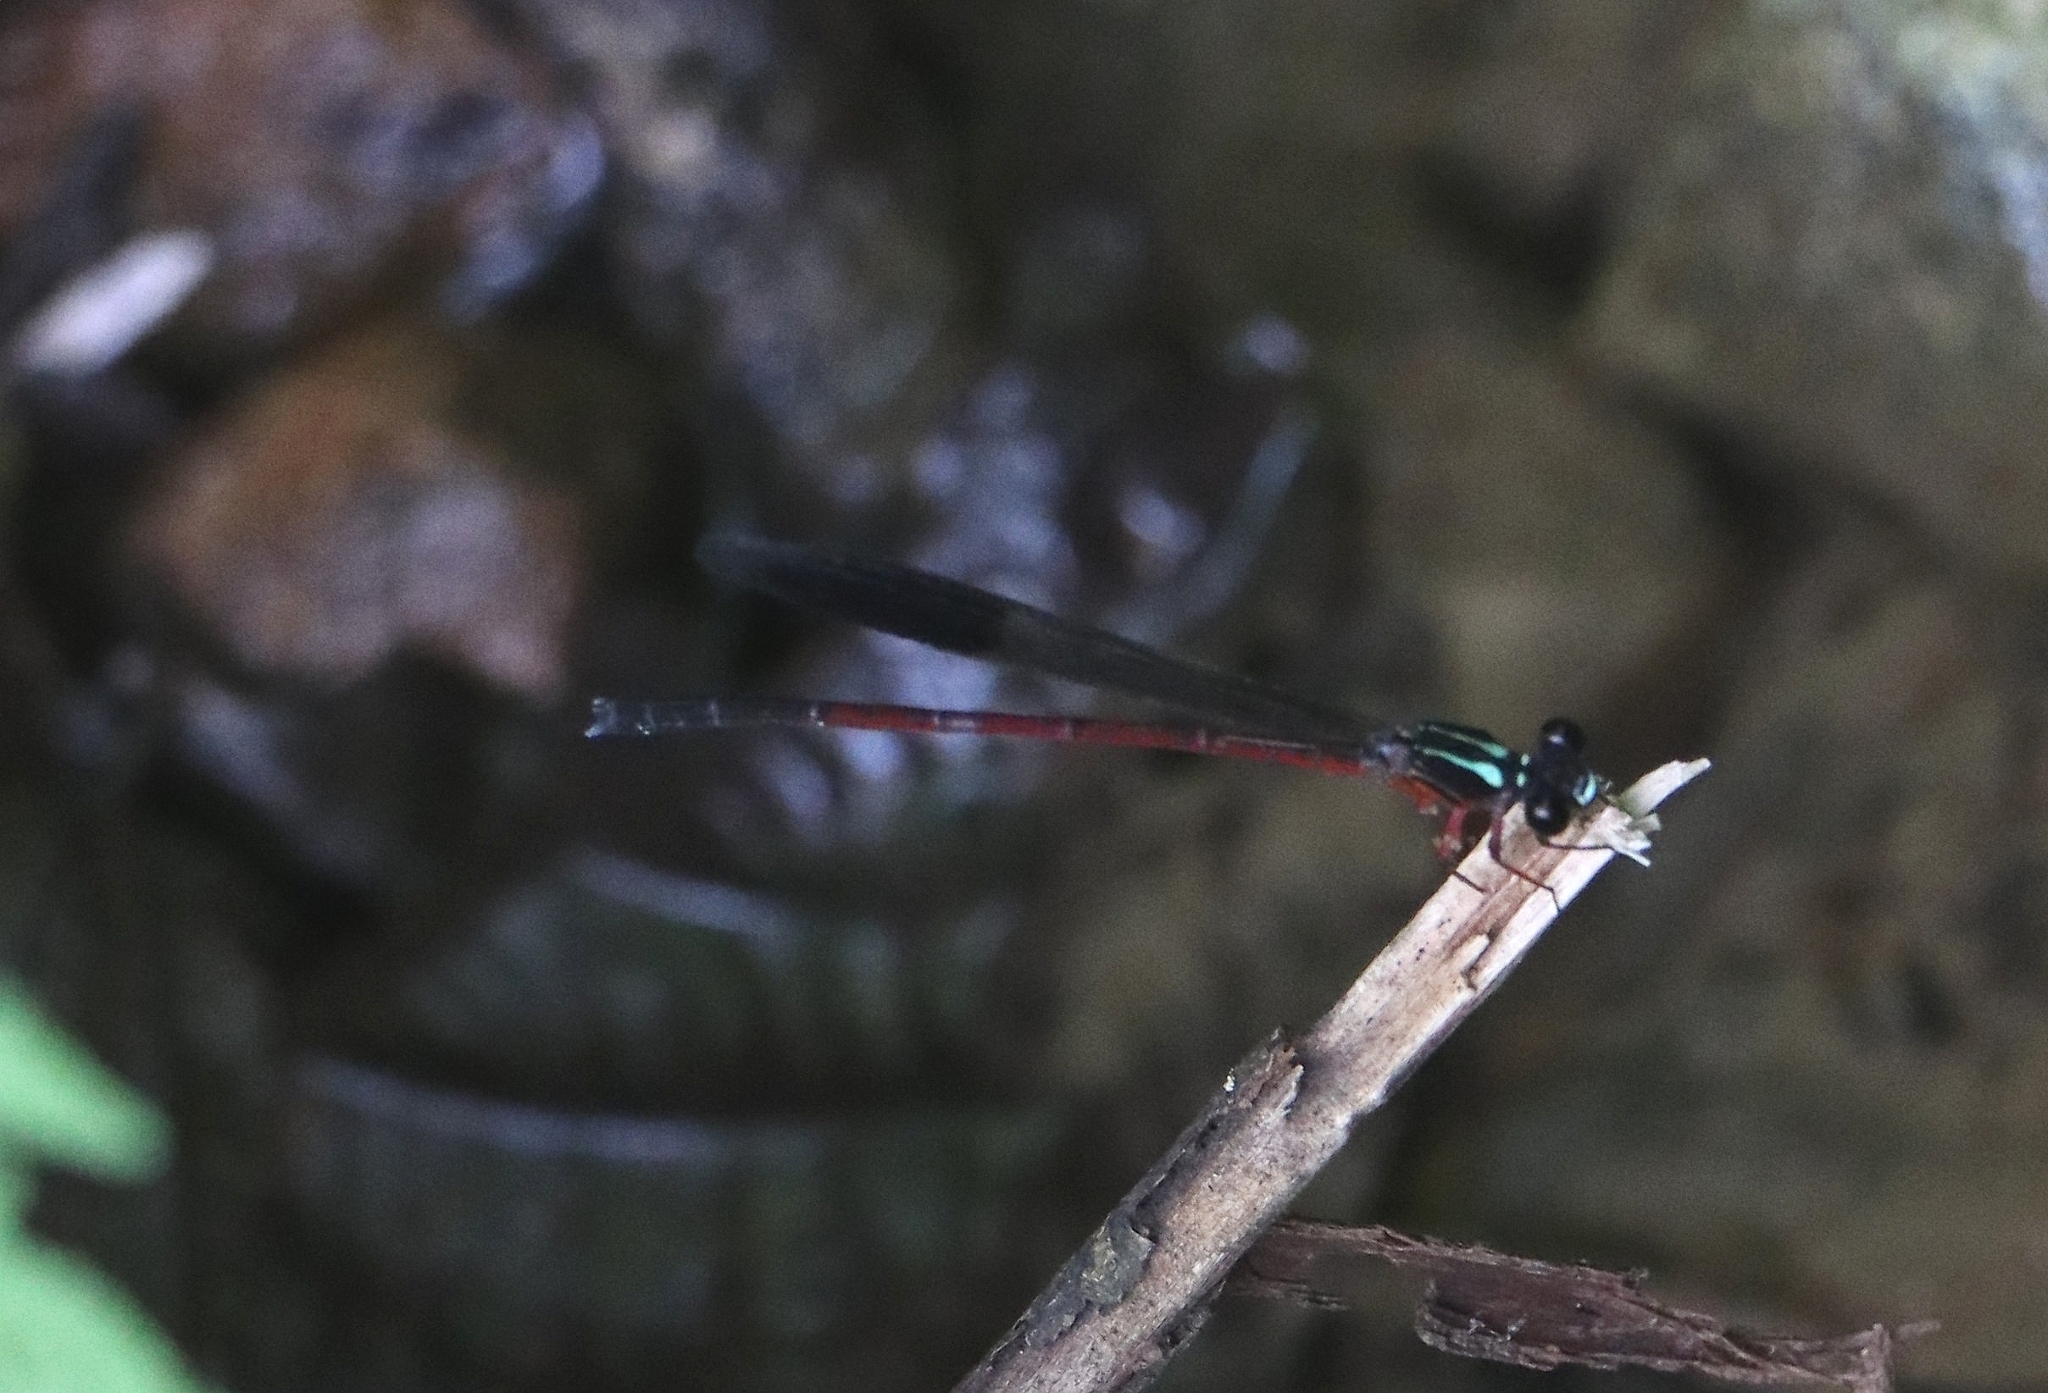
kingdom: Animalia
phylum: Arthropoda
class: Insecta
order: Odonata
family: Euphaeidae
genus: Euphaea
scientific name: Euphaea fraseri
